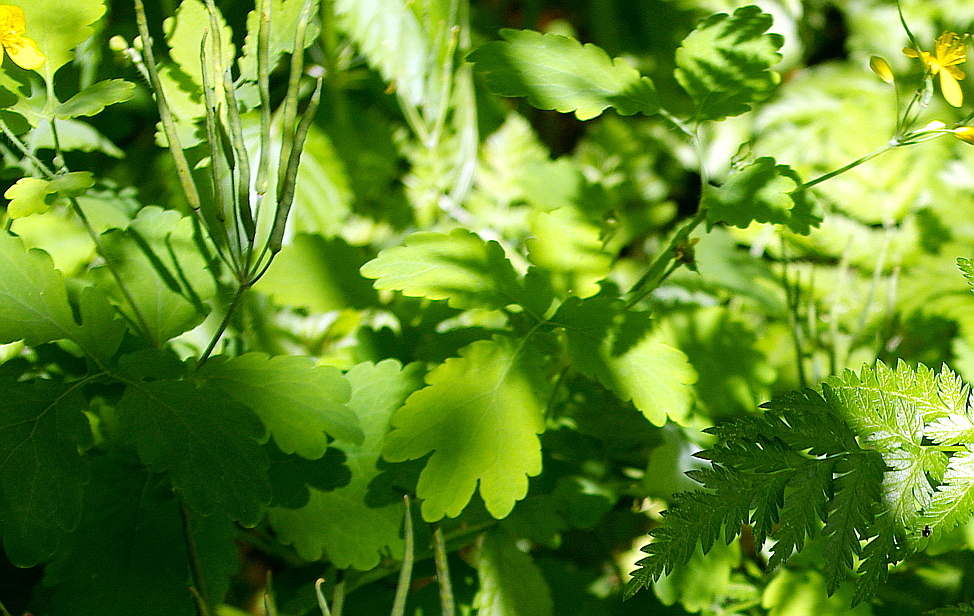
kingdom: Plantae
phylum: Tracheophyta
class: Magnoliopsida
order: Ranunculales
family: Papaveraceae
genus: Chelidonium
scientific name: Chelidonium majus
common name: Greater celandine
